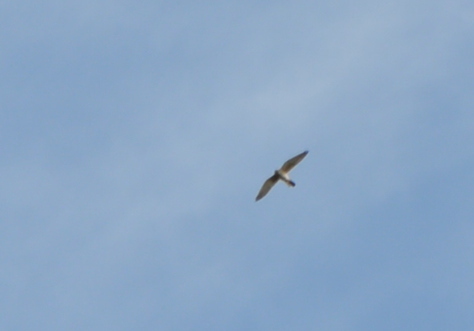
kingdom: Animalia
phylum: Chordata
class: Aves
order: Falconiformes
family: Falconidae
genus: Falco
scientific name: Falco tinnunculus
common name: Common kestrel
